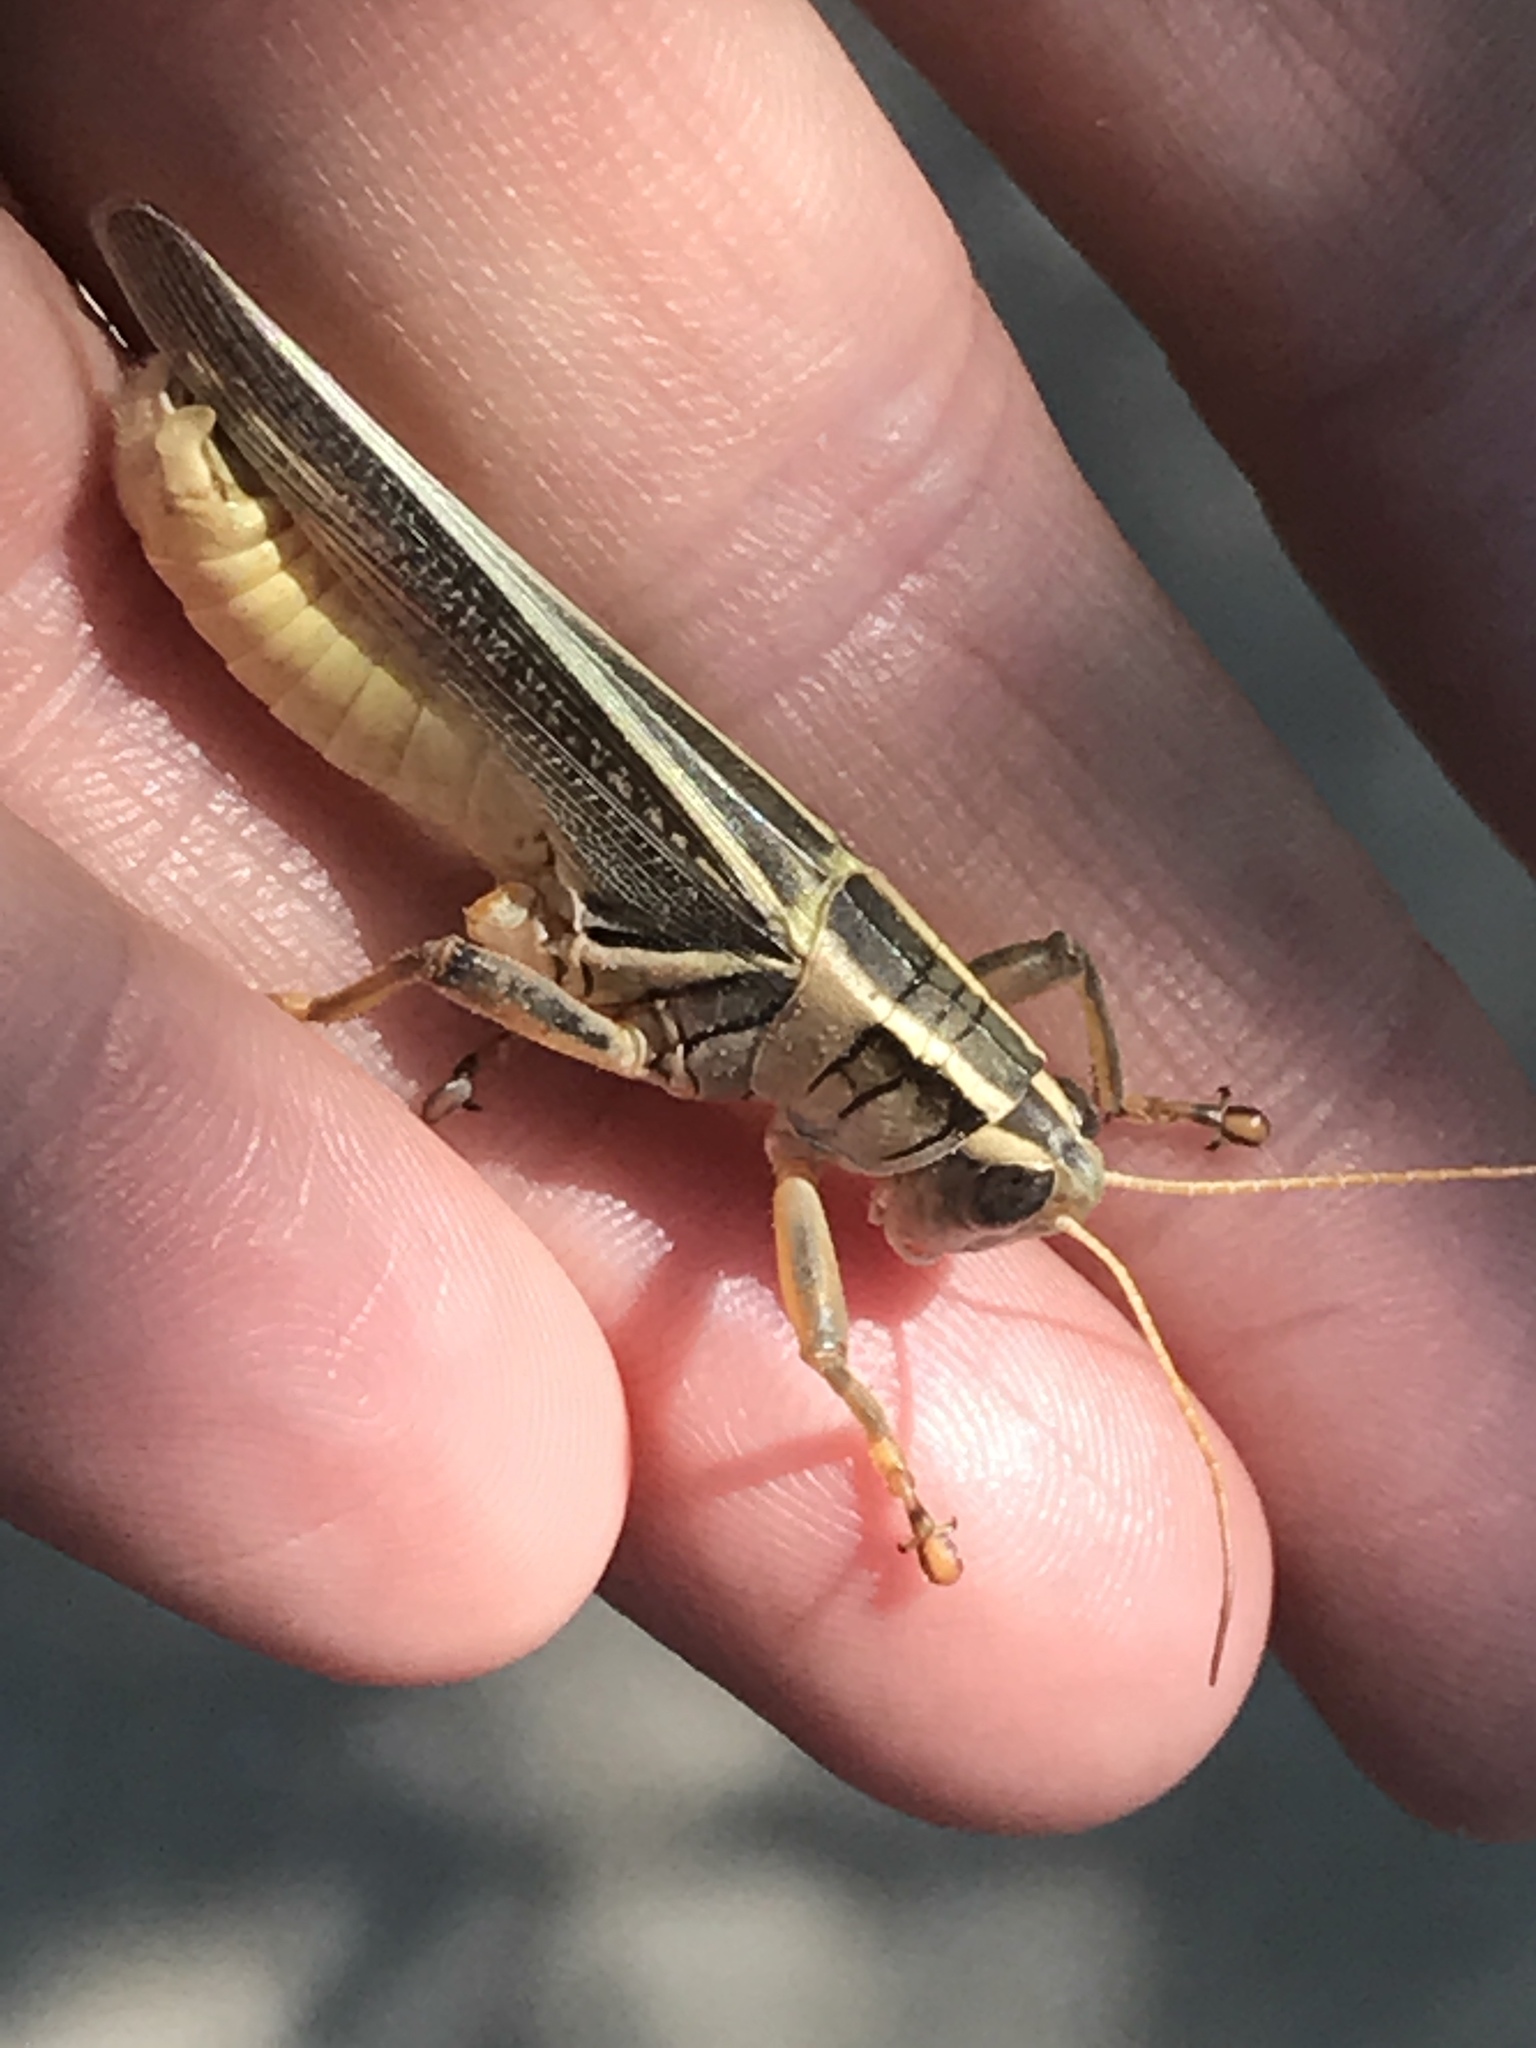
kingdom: Animalia
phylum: Arthropoda
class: Insecta
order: Orthoptera
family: Acrididae
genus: Melanoplus
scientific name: Melanoplus bivittatus
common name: Two-striped grasshopper
